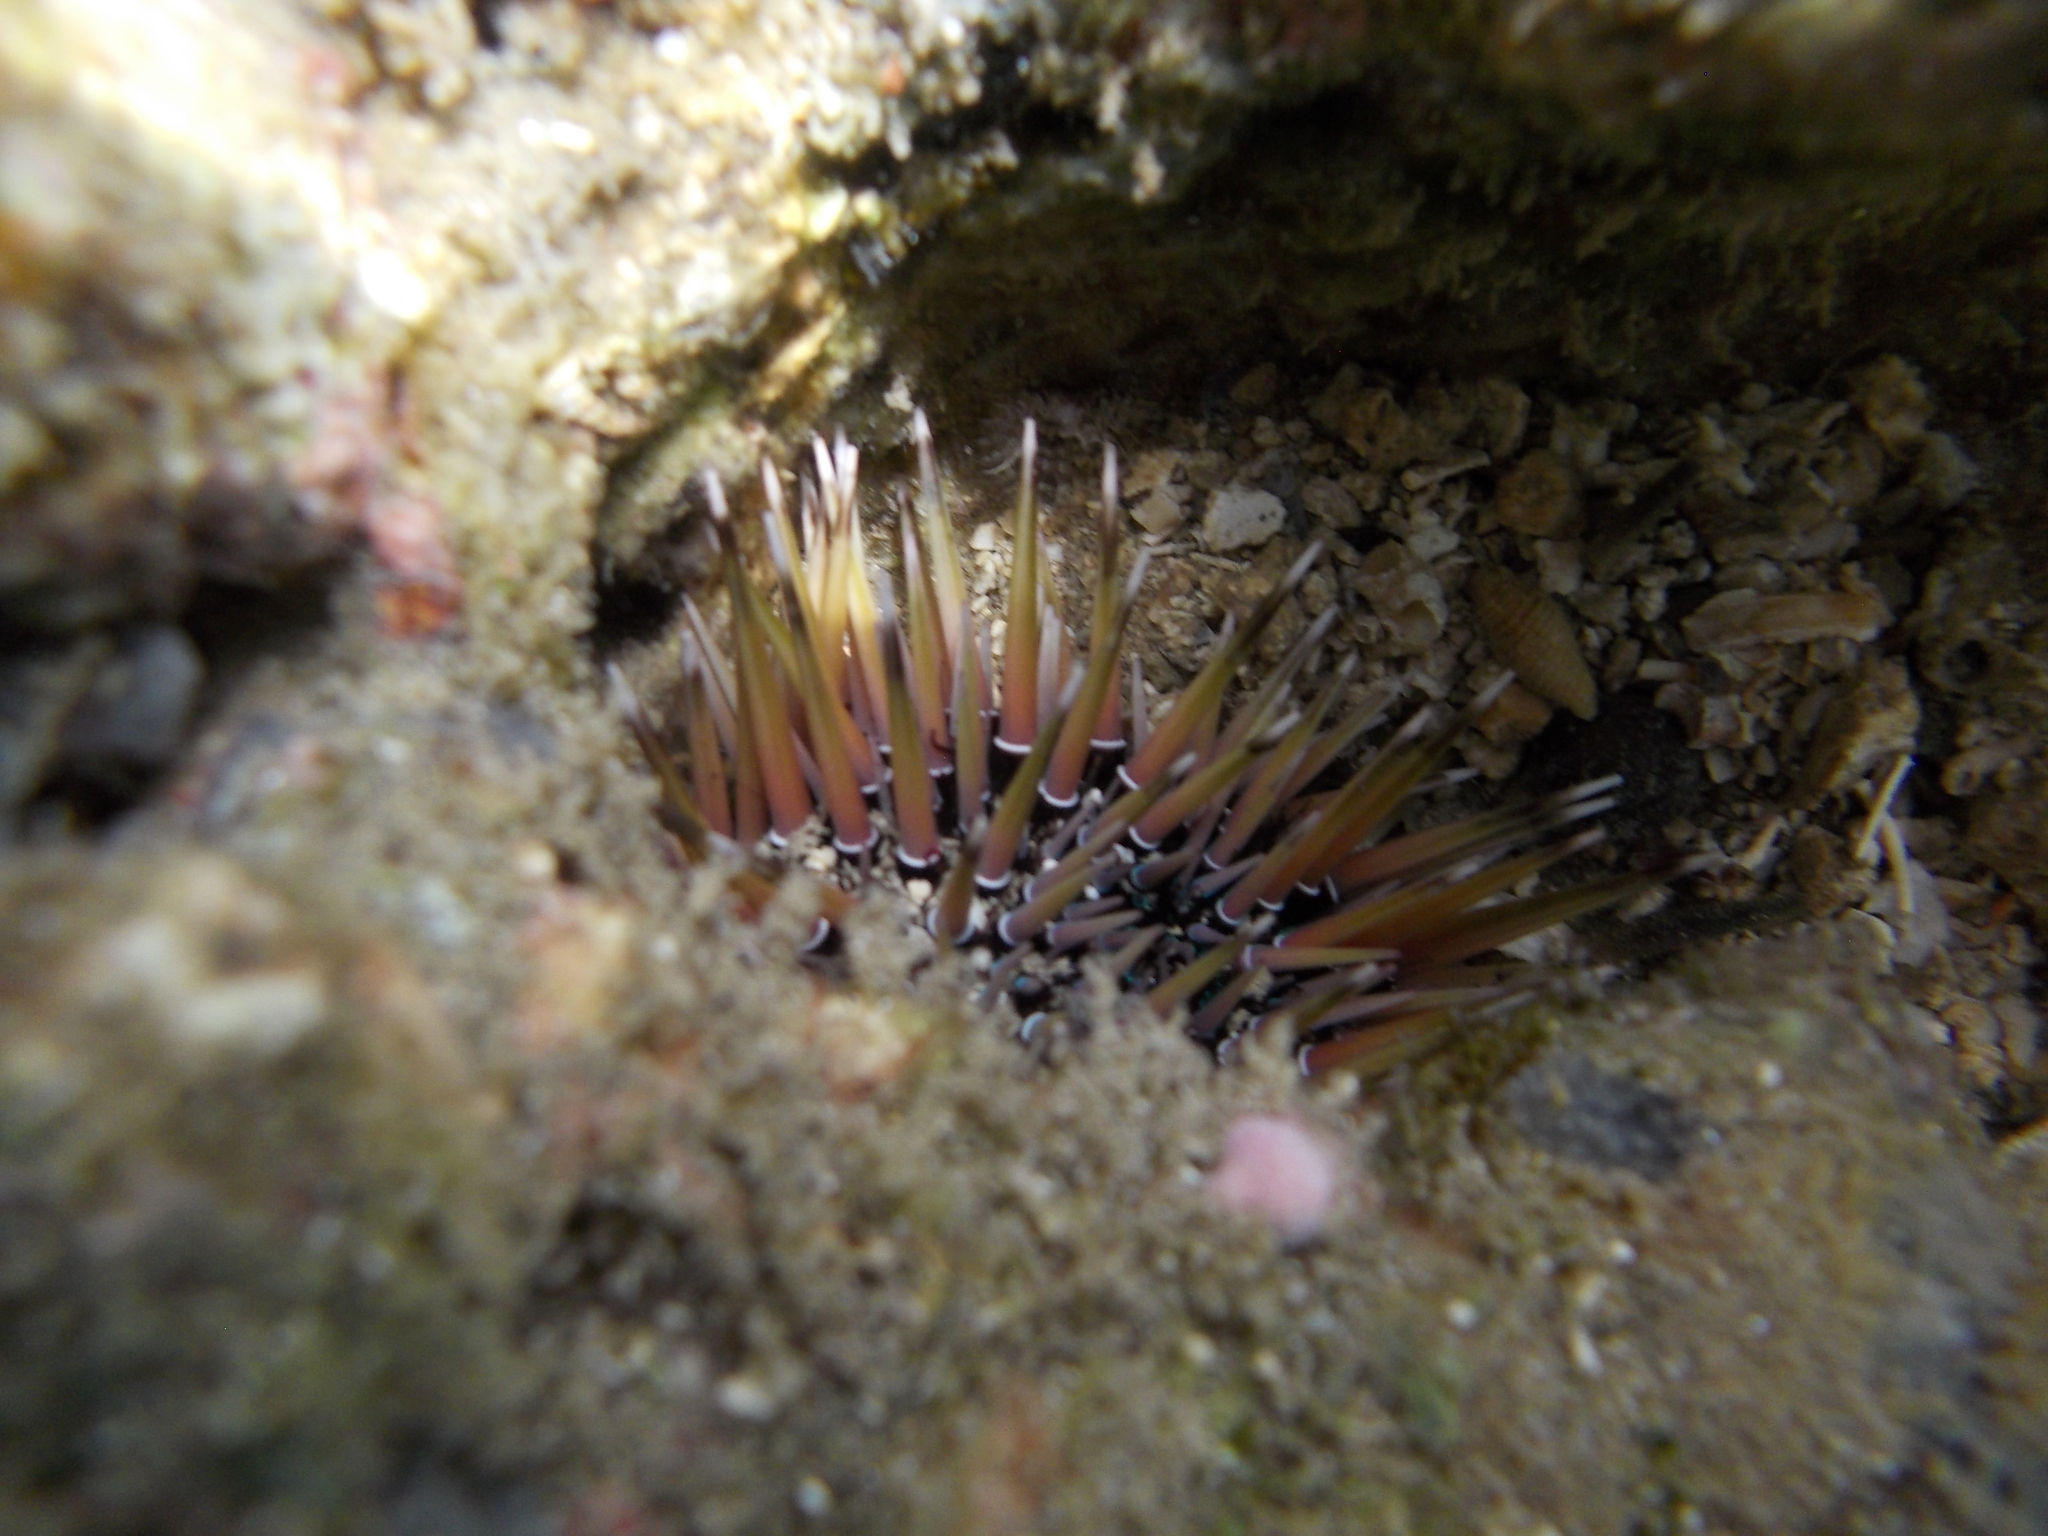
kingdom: Animalia
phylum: Echinodermata
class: Echinoidea
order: Camarodonta
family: Echinometridae
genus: Echinometra
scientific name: Echinometra mathaei
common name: Rock-boring urchin
